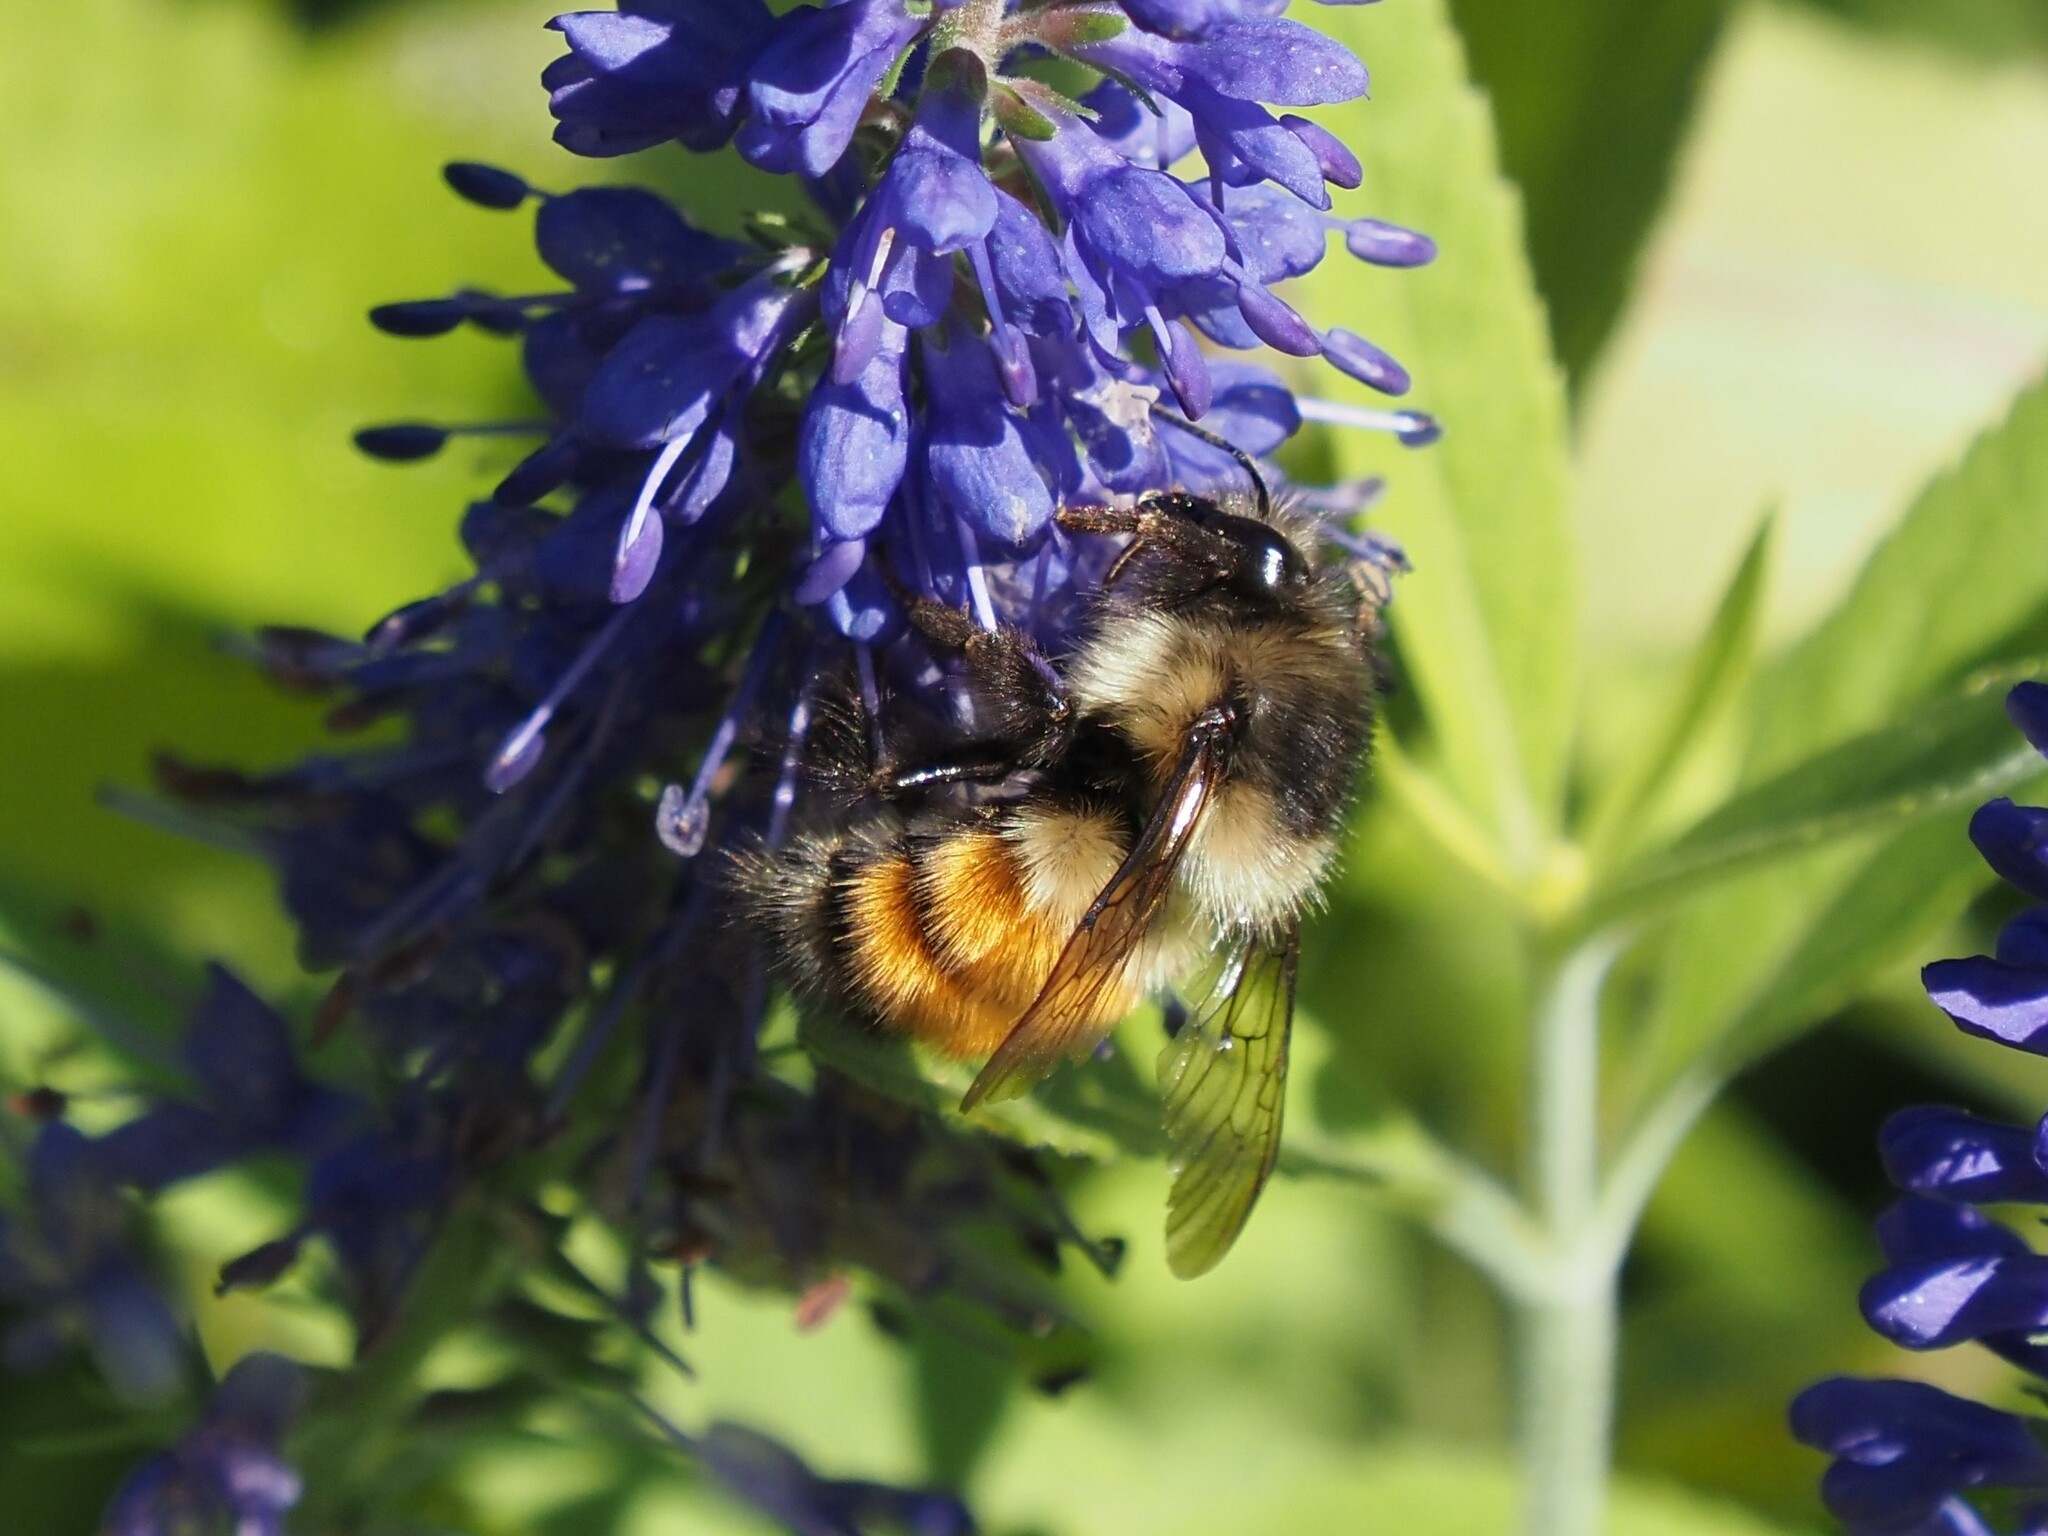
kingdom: Animalia
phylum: Arthropoda
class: Insecta
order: Hymenoptera
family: Apidae
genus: Bombus
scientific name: Bombus melanopygus
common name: Black tail bumble bee
